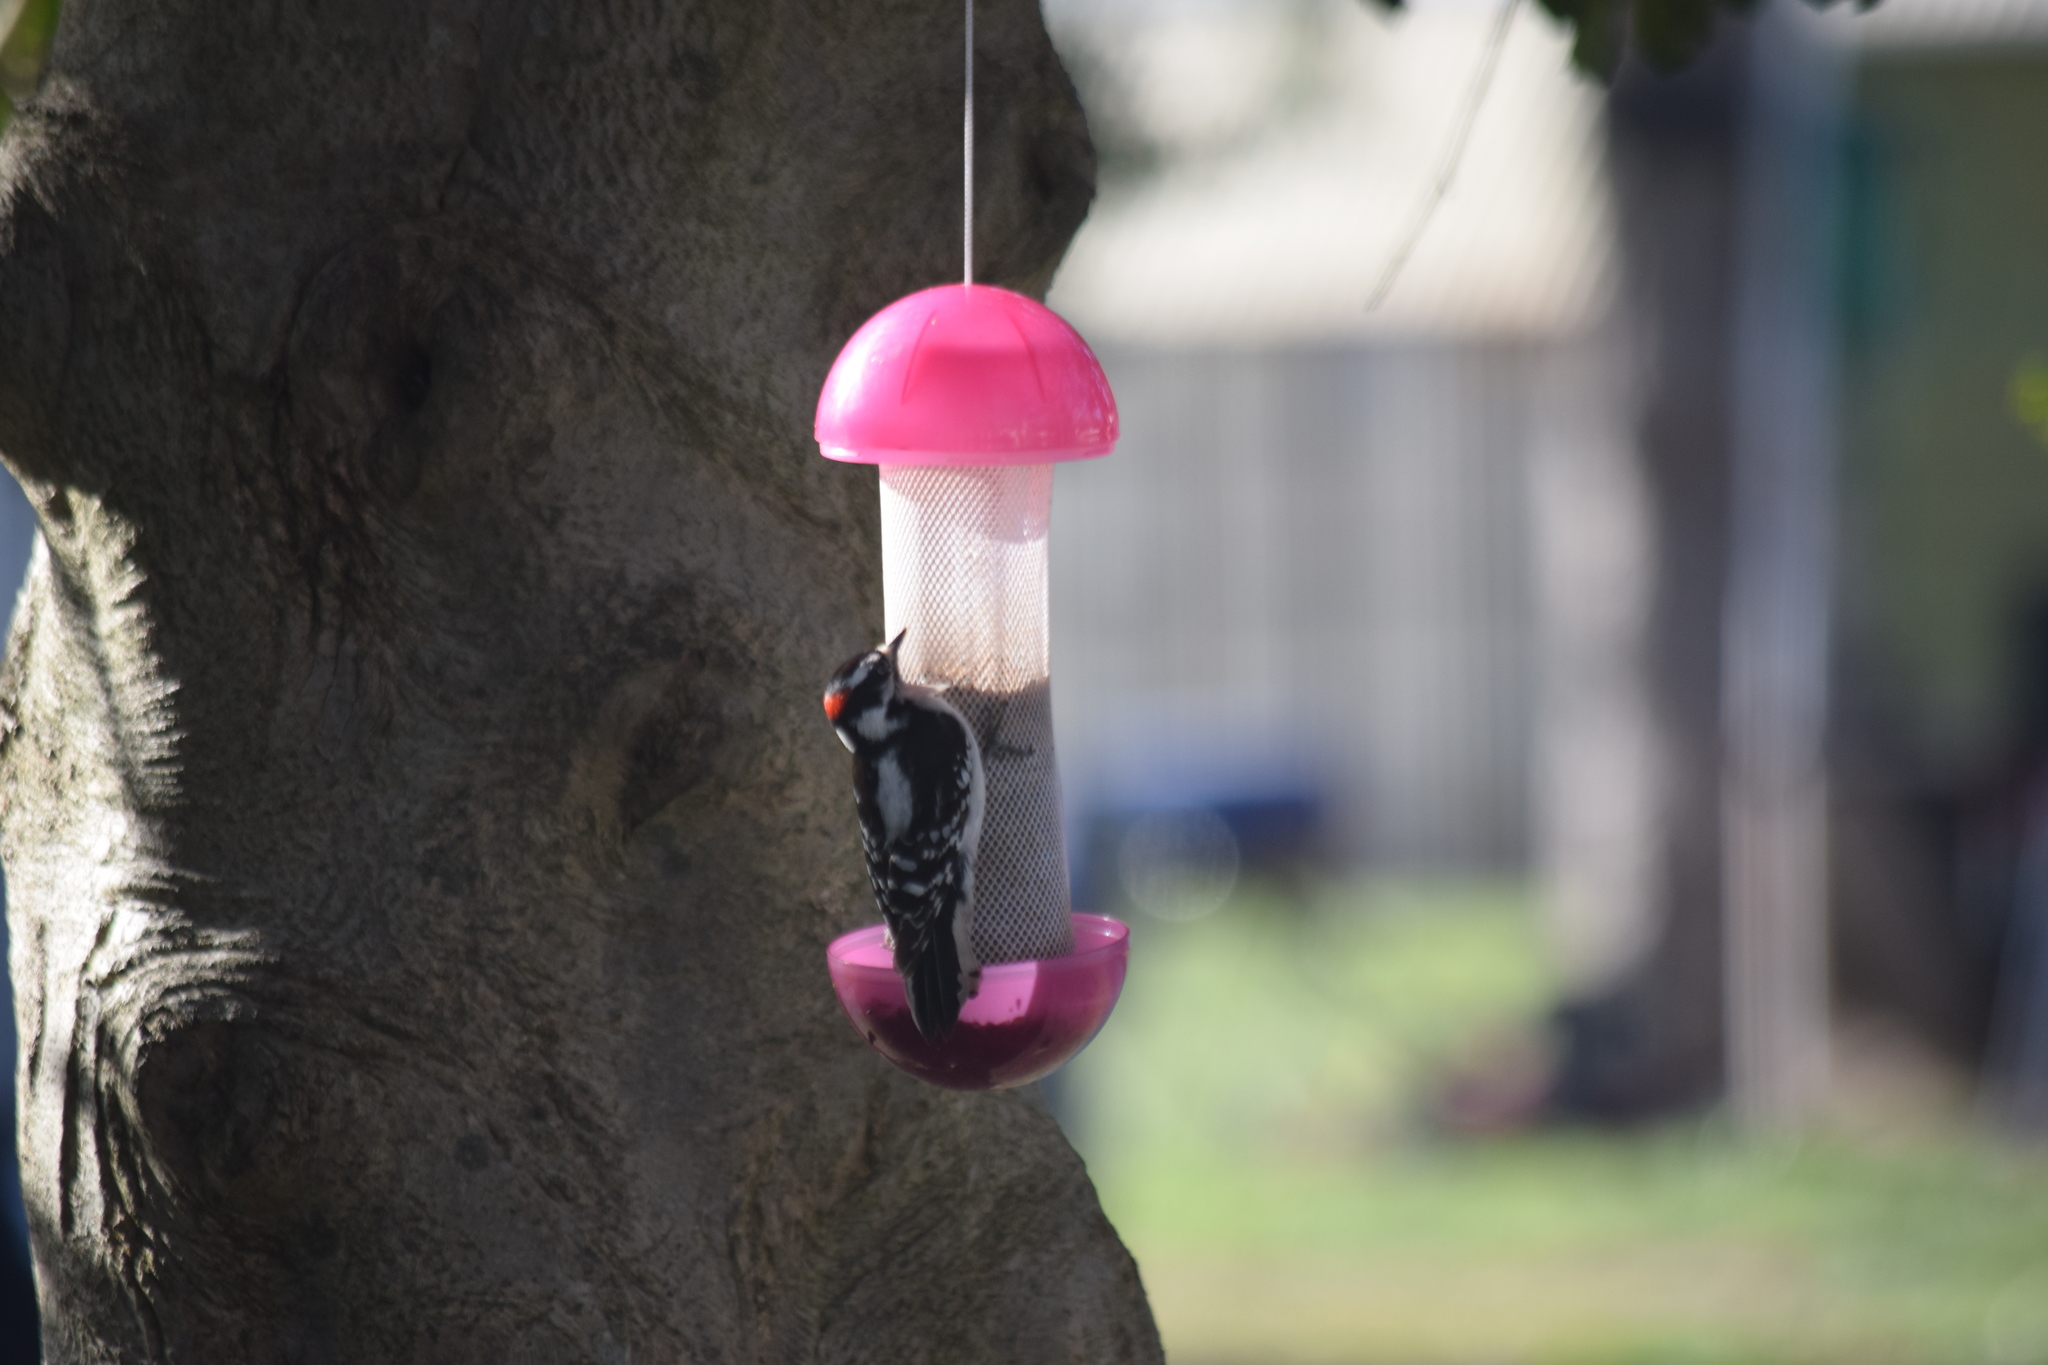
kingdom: Animalia
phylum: Chordata
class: Aves
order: Piciformes
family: Picidae
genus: Dryobates
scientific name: Dryobates pubescens
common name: Downy woodpecker
